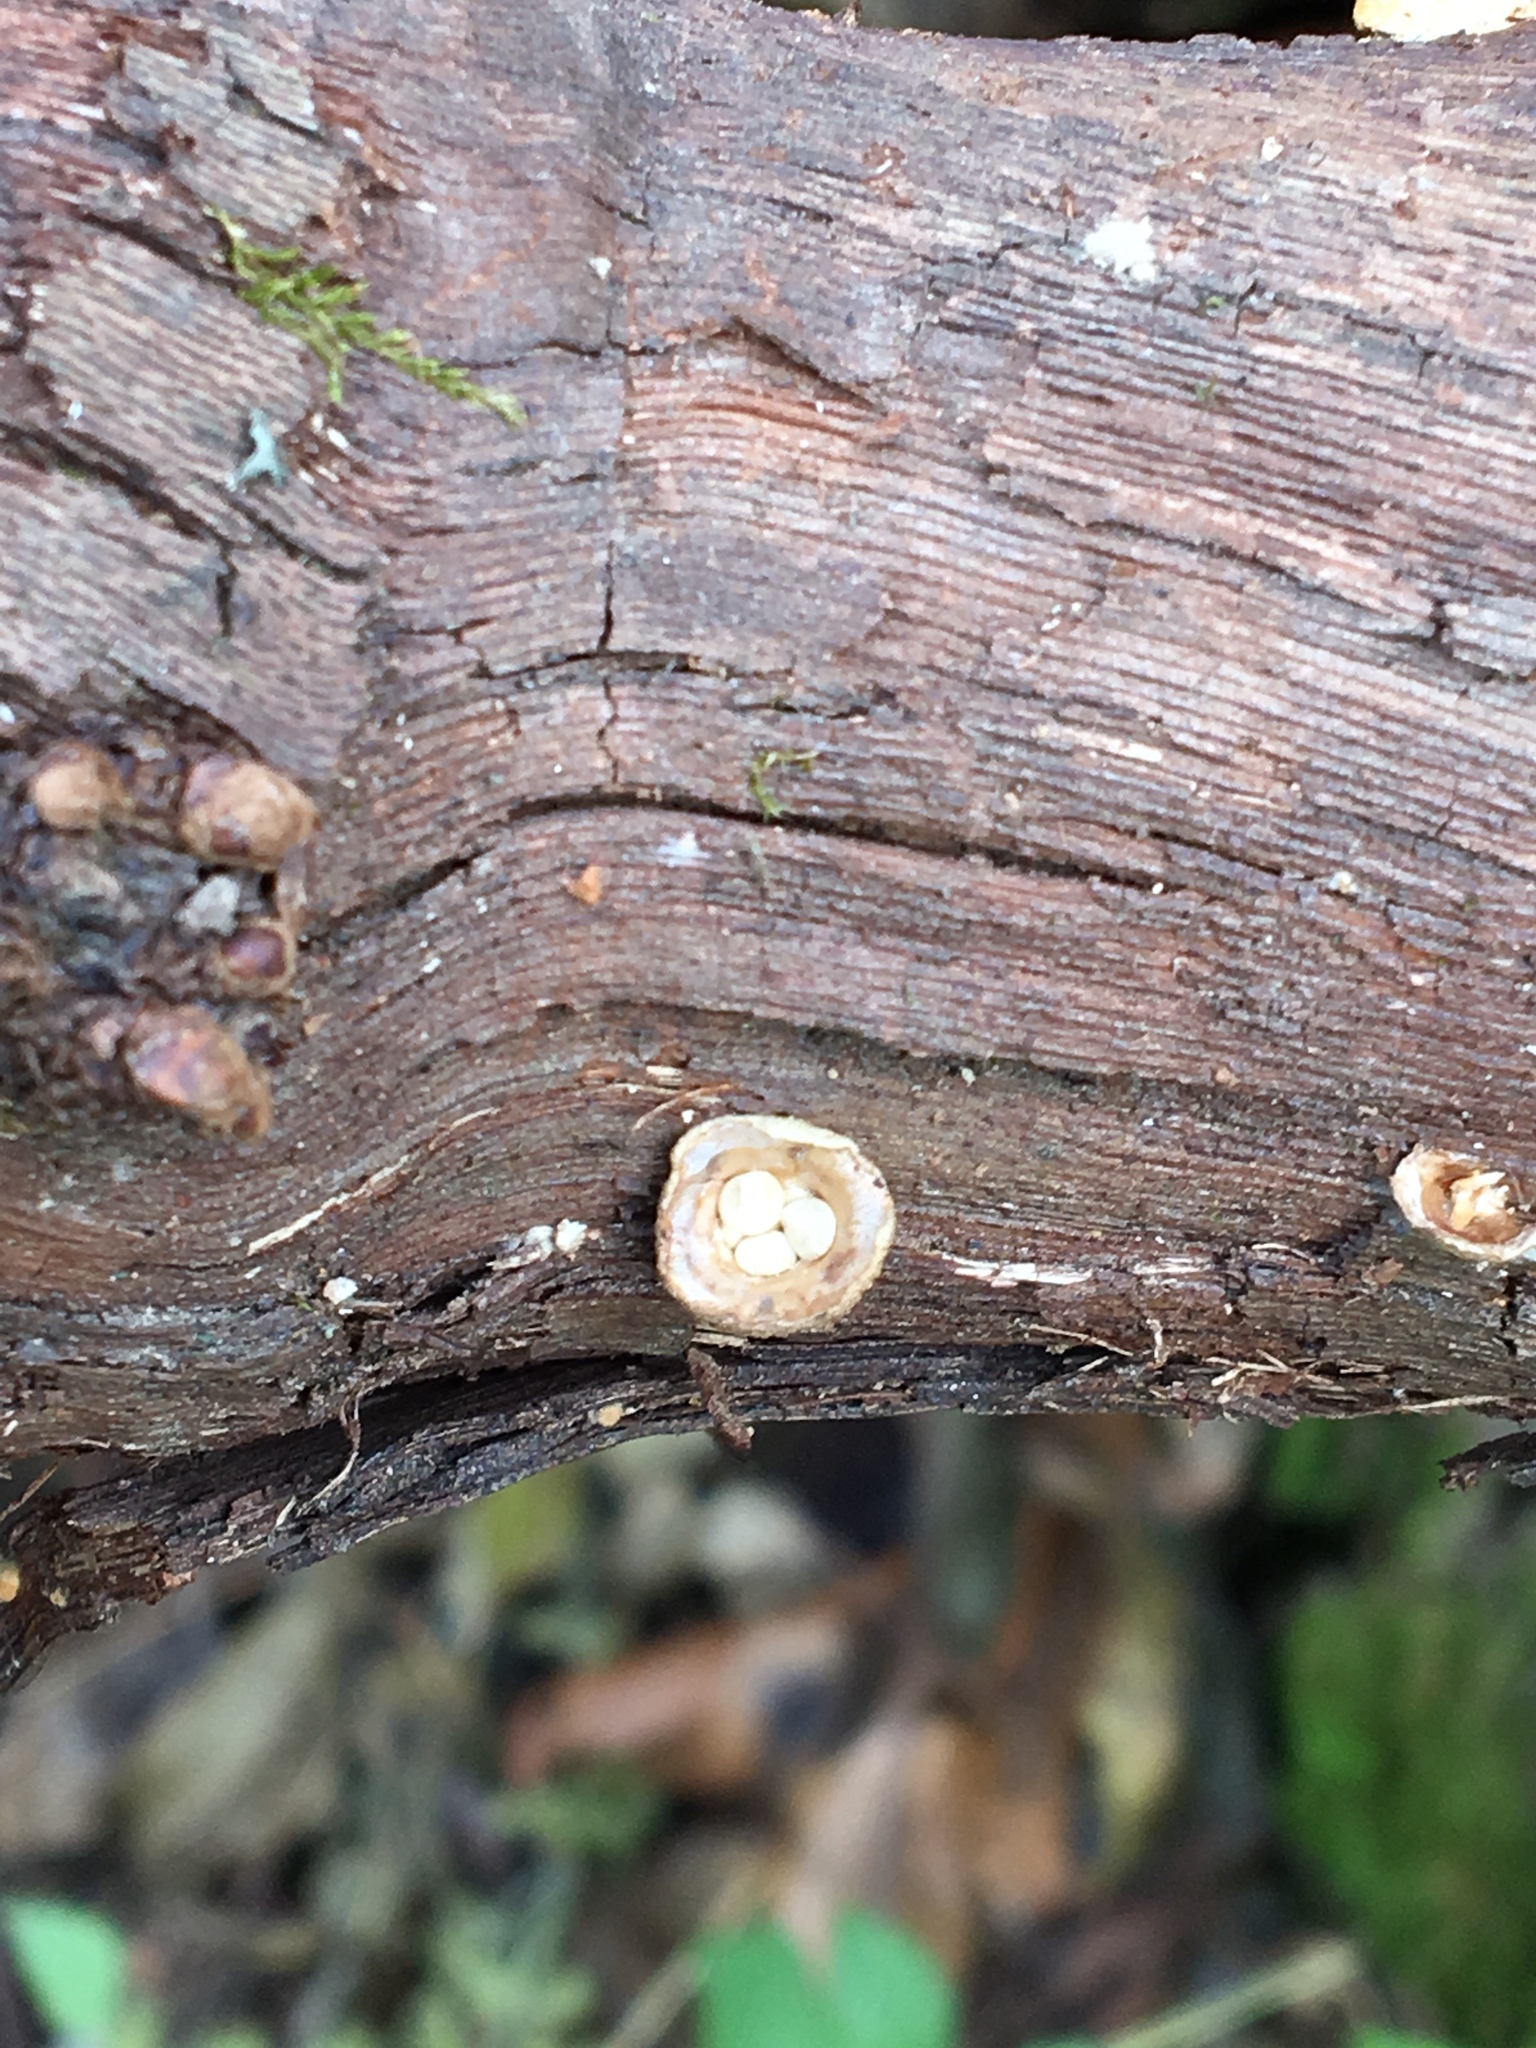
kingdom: Fungi
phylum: Basidiomycota
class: Agaricomycetes
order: Agaricales
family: Nidulariaceae
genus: Crucibulum
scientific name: Crucibulum laeve
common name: Common bird's nest
